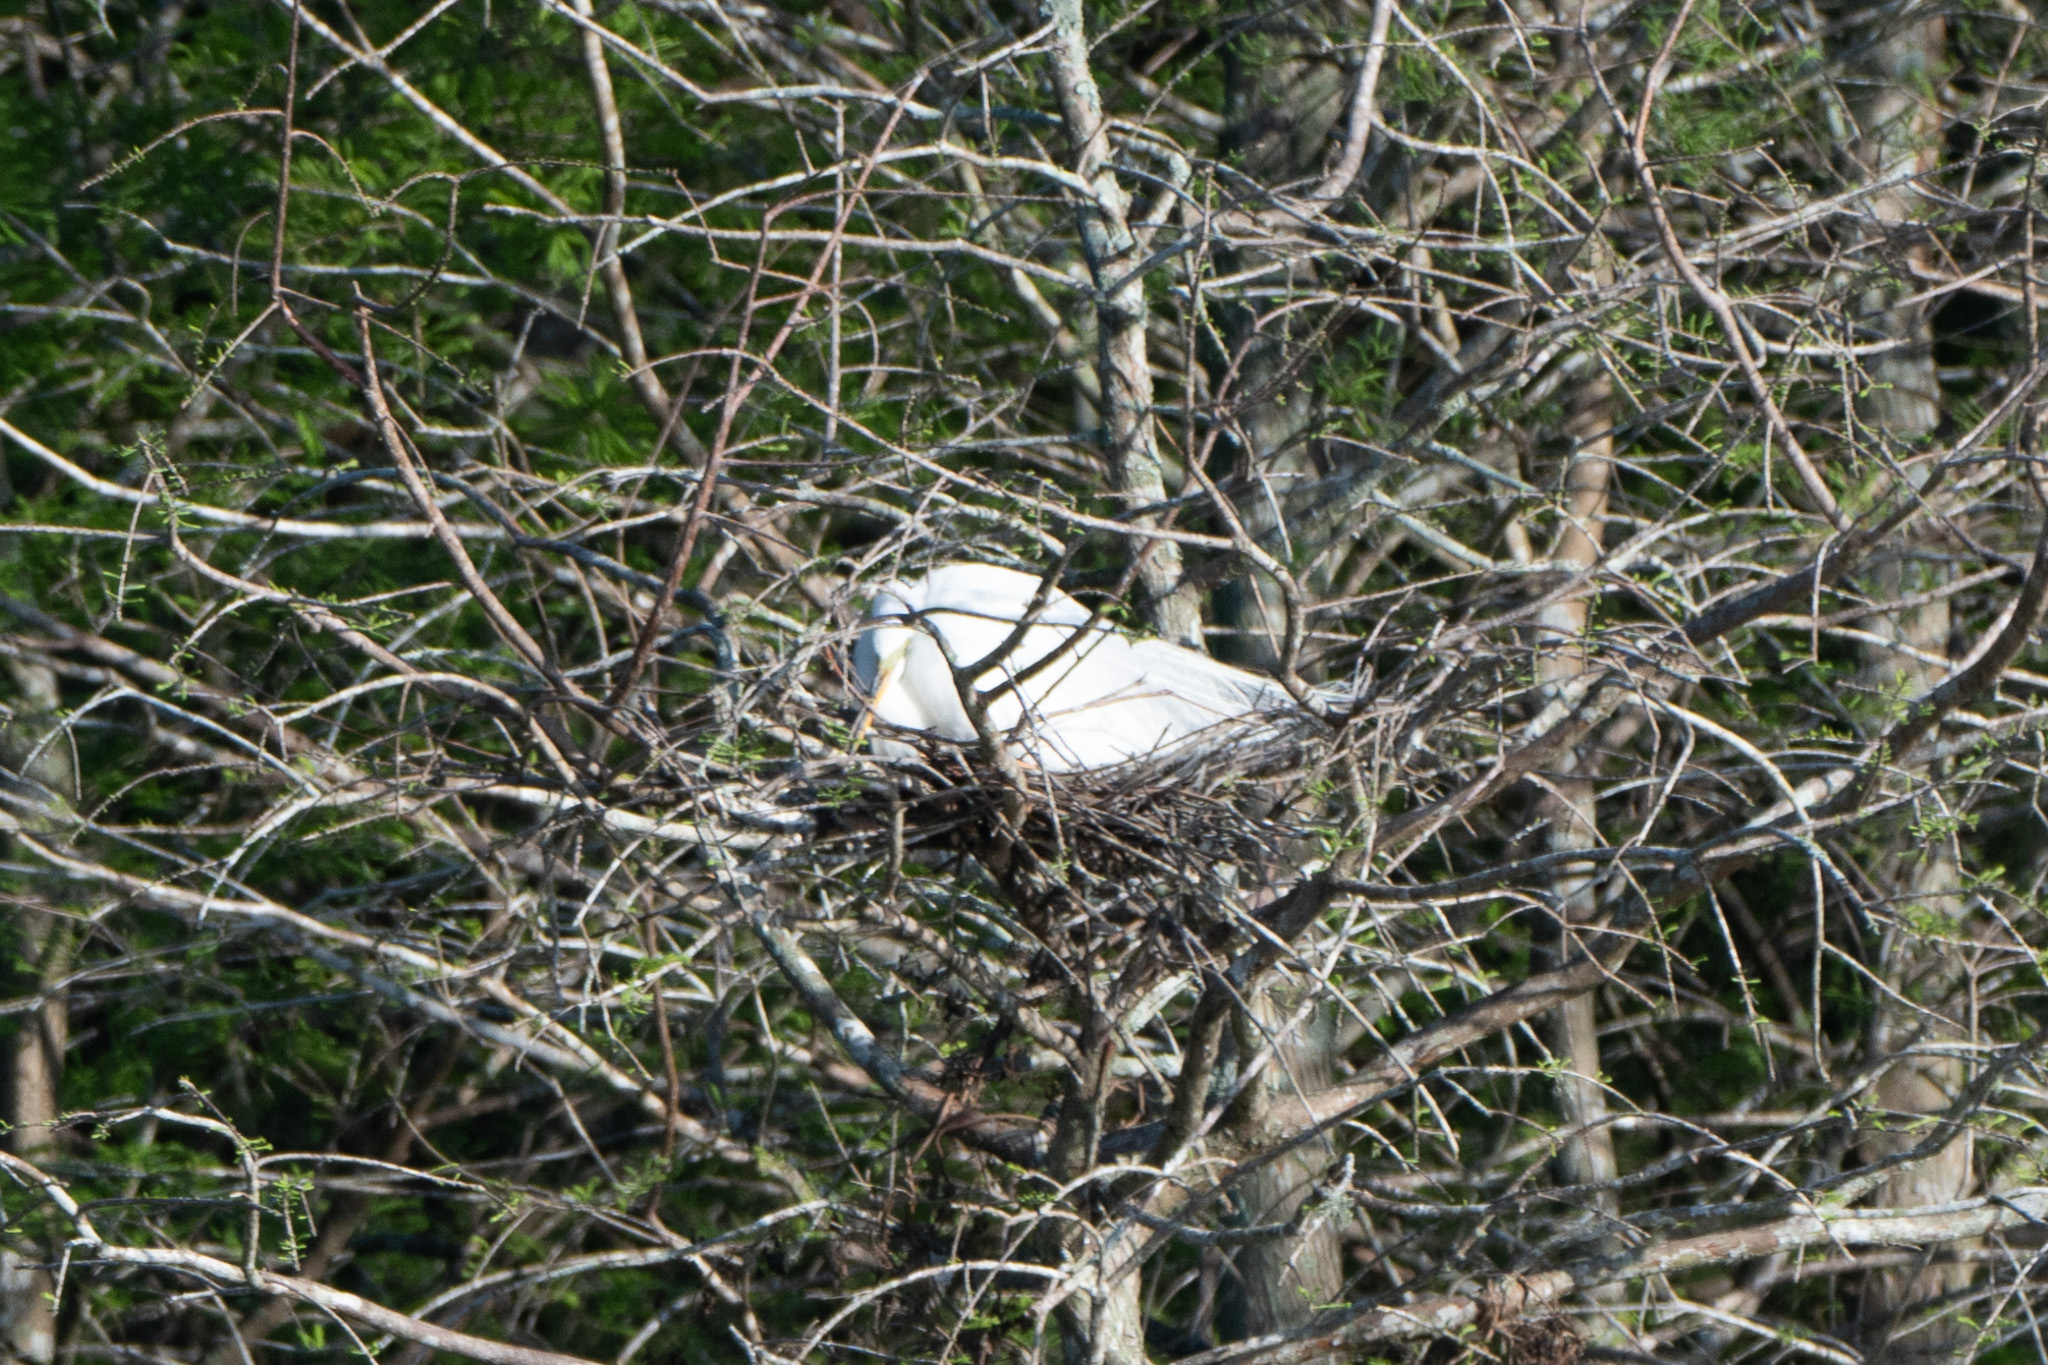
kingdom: Animalia
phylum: Chordata
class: Aves
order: Pelecaniformes
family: Ardeidae
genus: Ardea
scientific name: Ardea alba
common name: Great egret
